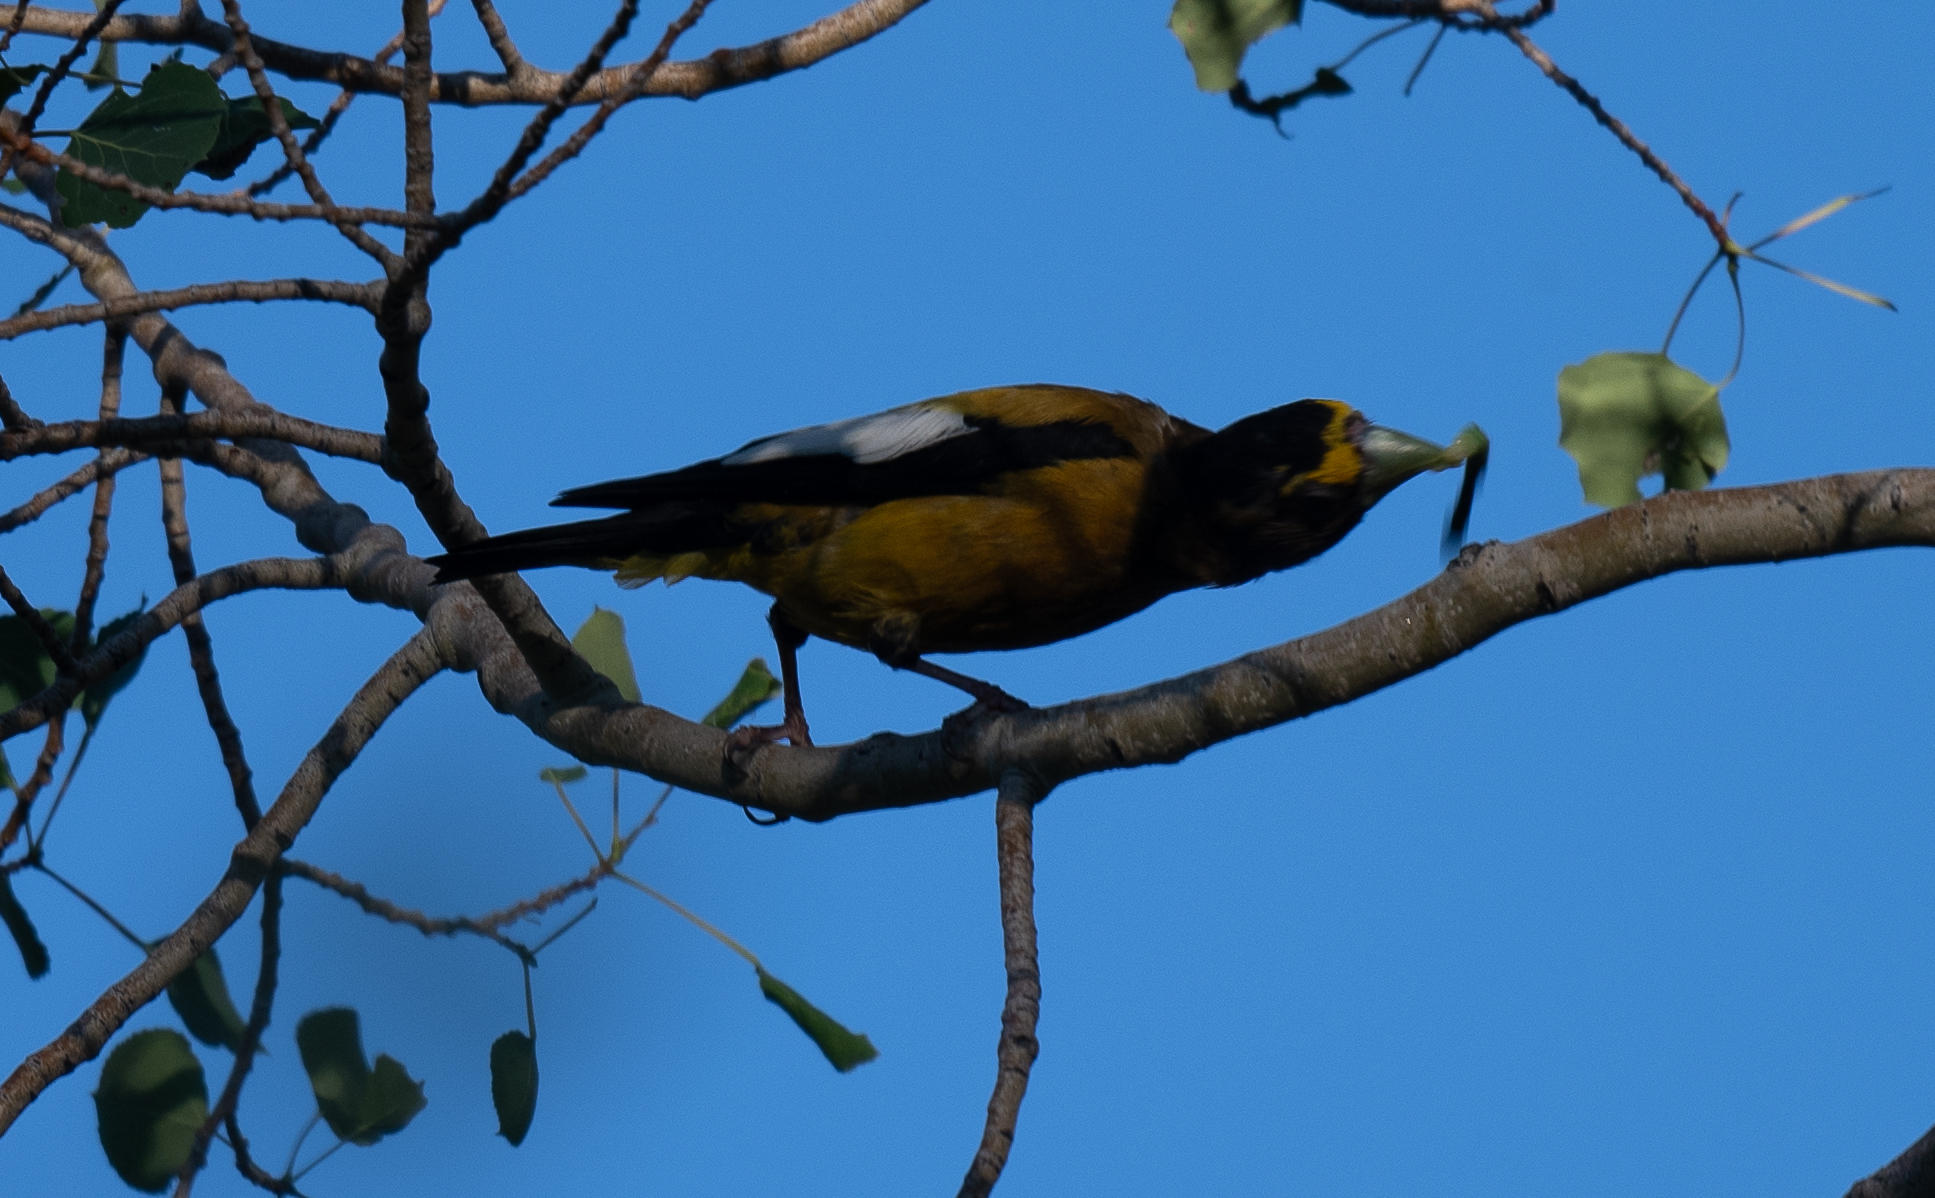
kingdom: Animalia
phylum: Chordata
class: Aves
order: Passeriformes
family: Fringillidae
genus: Hesperiphona
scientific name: Hesperiphona vespertina
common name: Evening grosbeak
